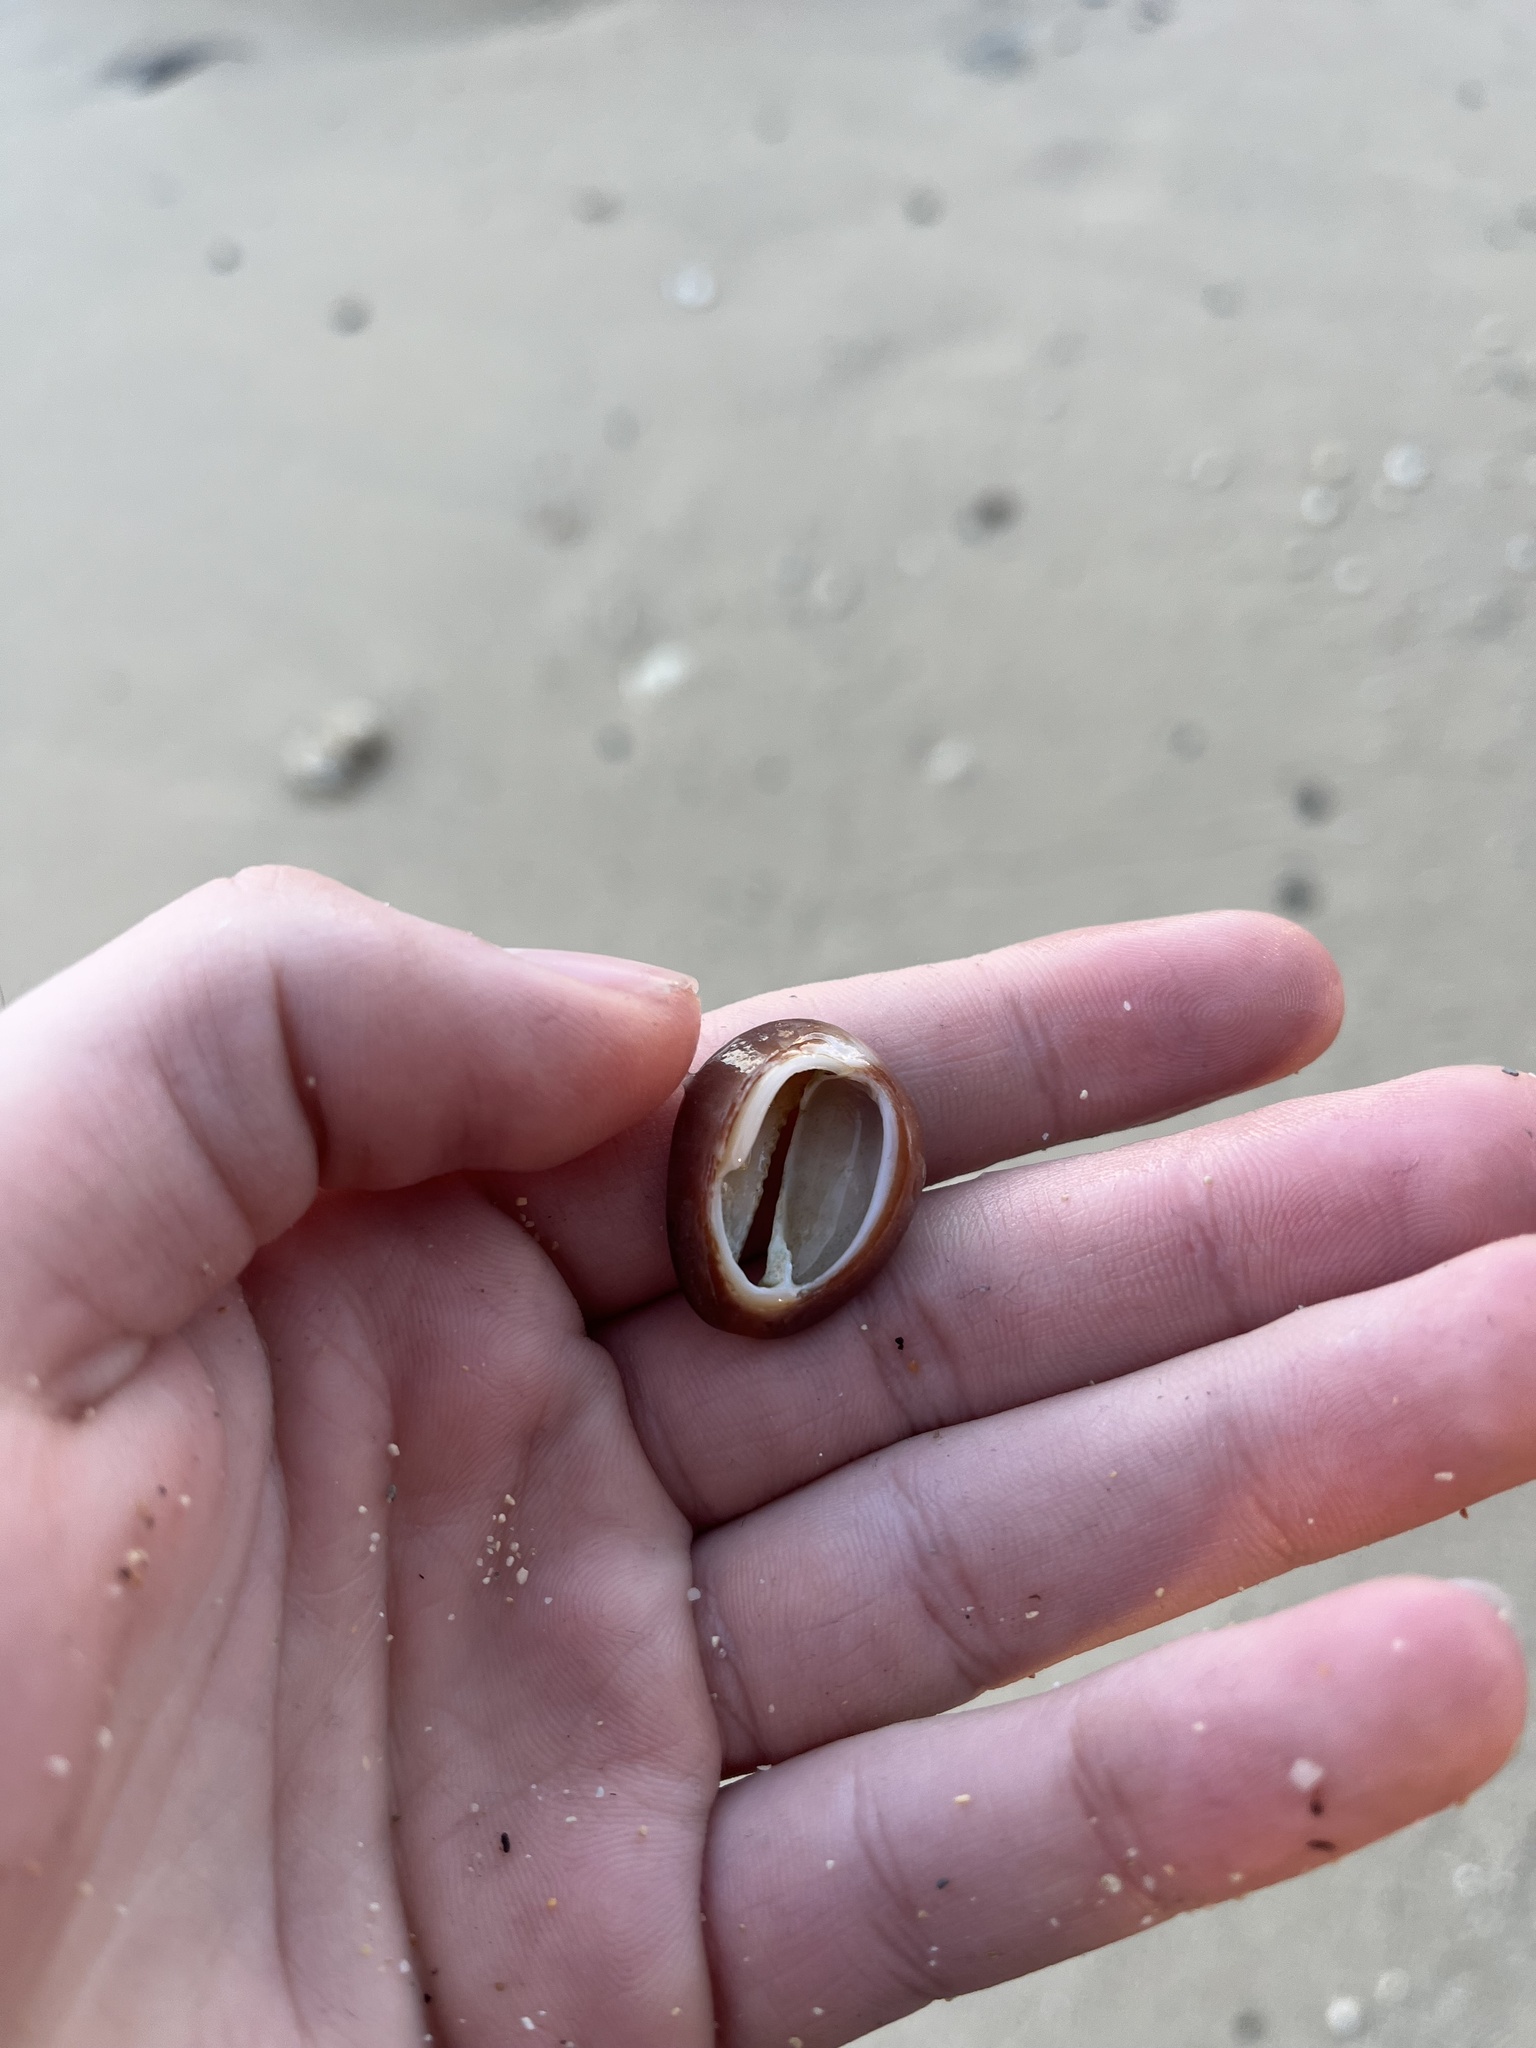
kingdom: Animalia
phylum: Mollusca
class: Gastropoda
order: Littorinimorpha
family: Cypraeidae
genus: Monetaria
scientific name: Monetaria caputophidii
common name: Snake's head cowry
